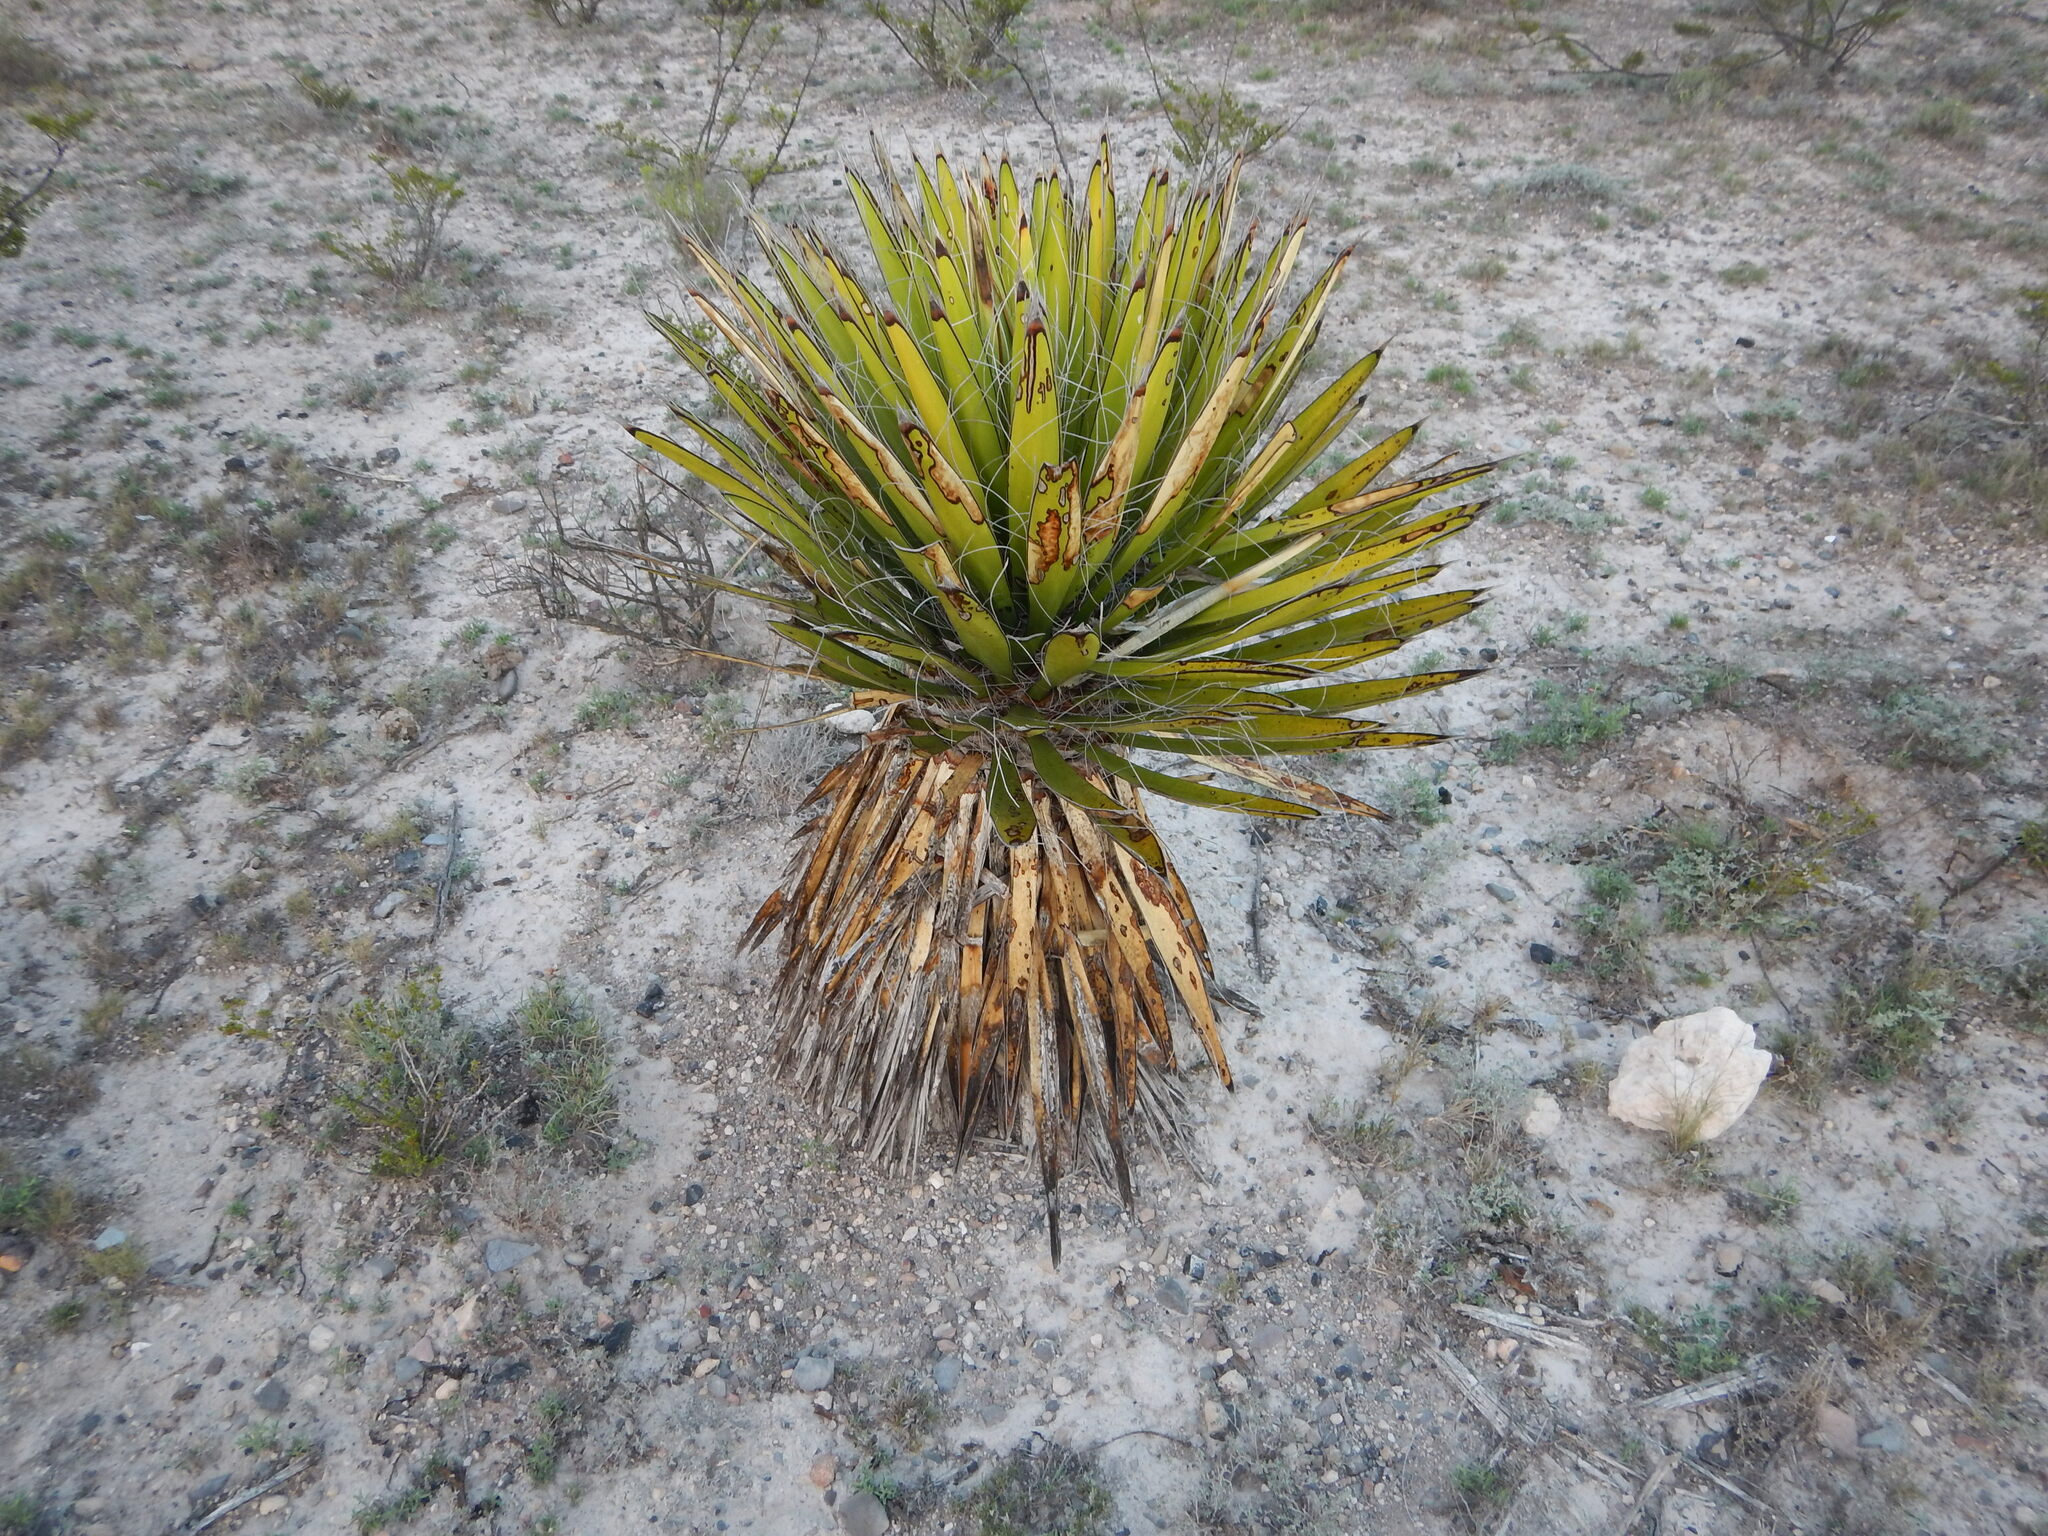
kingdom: Plantae
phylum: Tracheophyta
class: Liliopsida
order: Asparagales
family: Asparagaceae
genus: Yucca
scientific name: Yucca carnerosana
